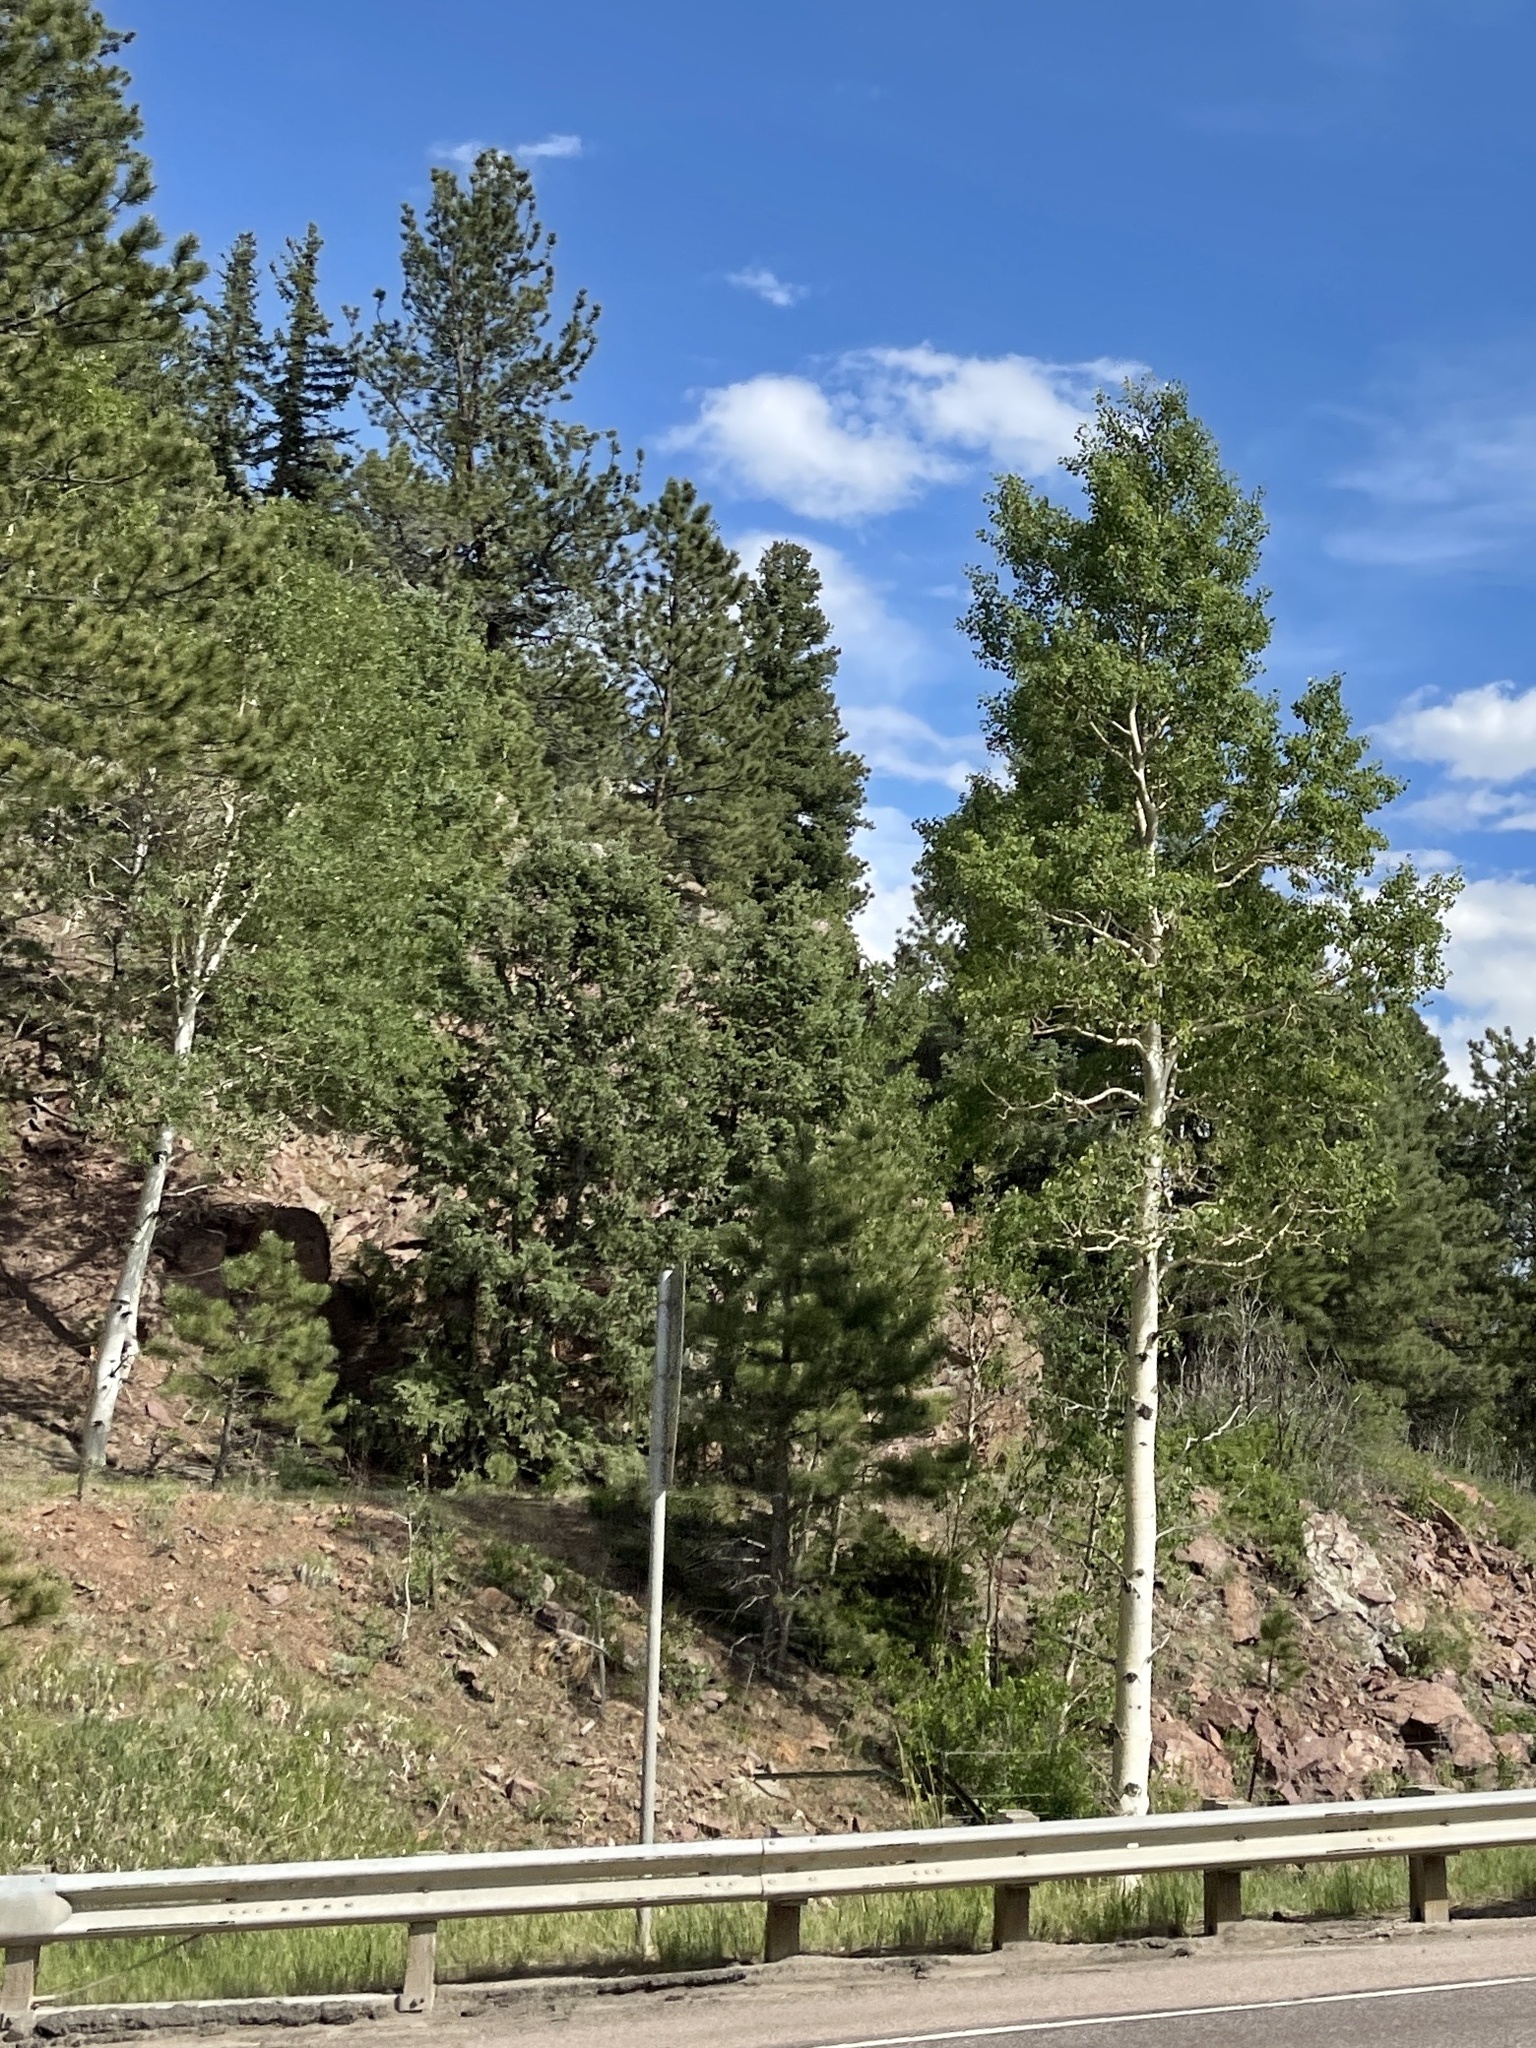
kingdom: Plantae
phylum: Tracheophyta
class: Magnoliopsida
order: Malpighiales
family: Salicaceae
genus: Populus
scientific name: Populus tremuloides
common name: Quaking aspen
